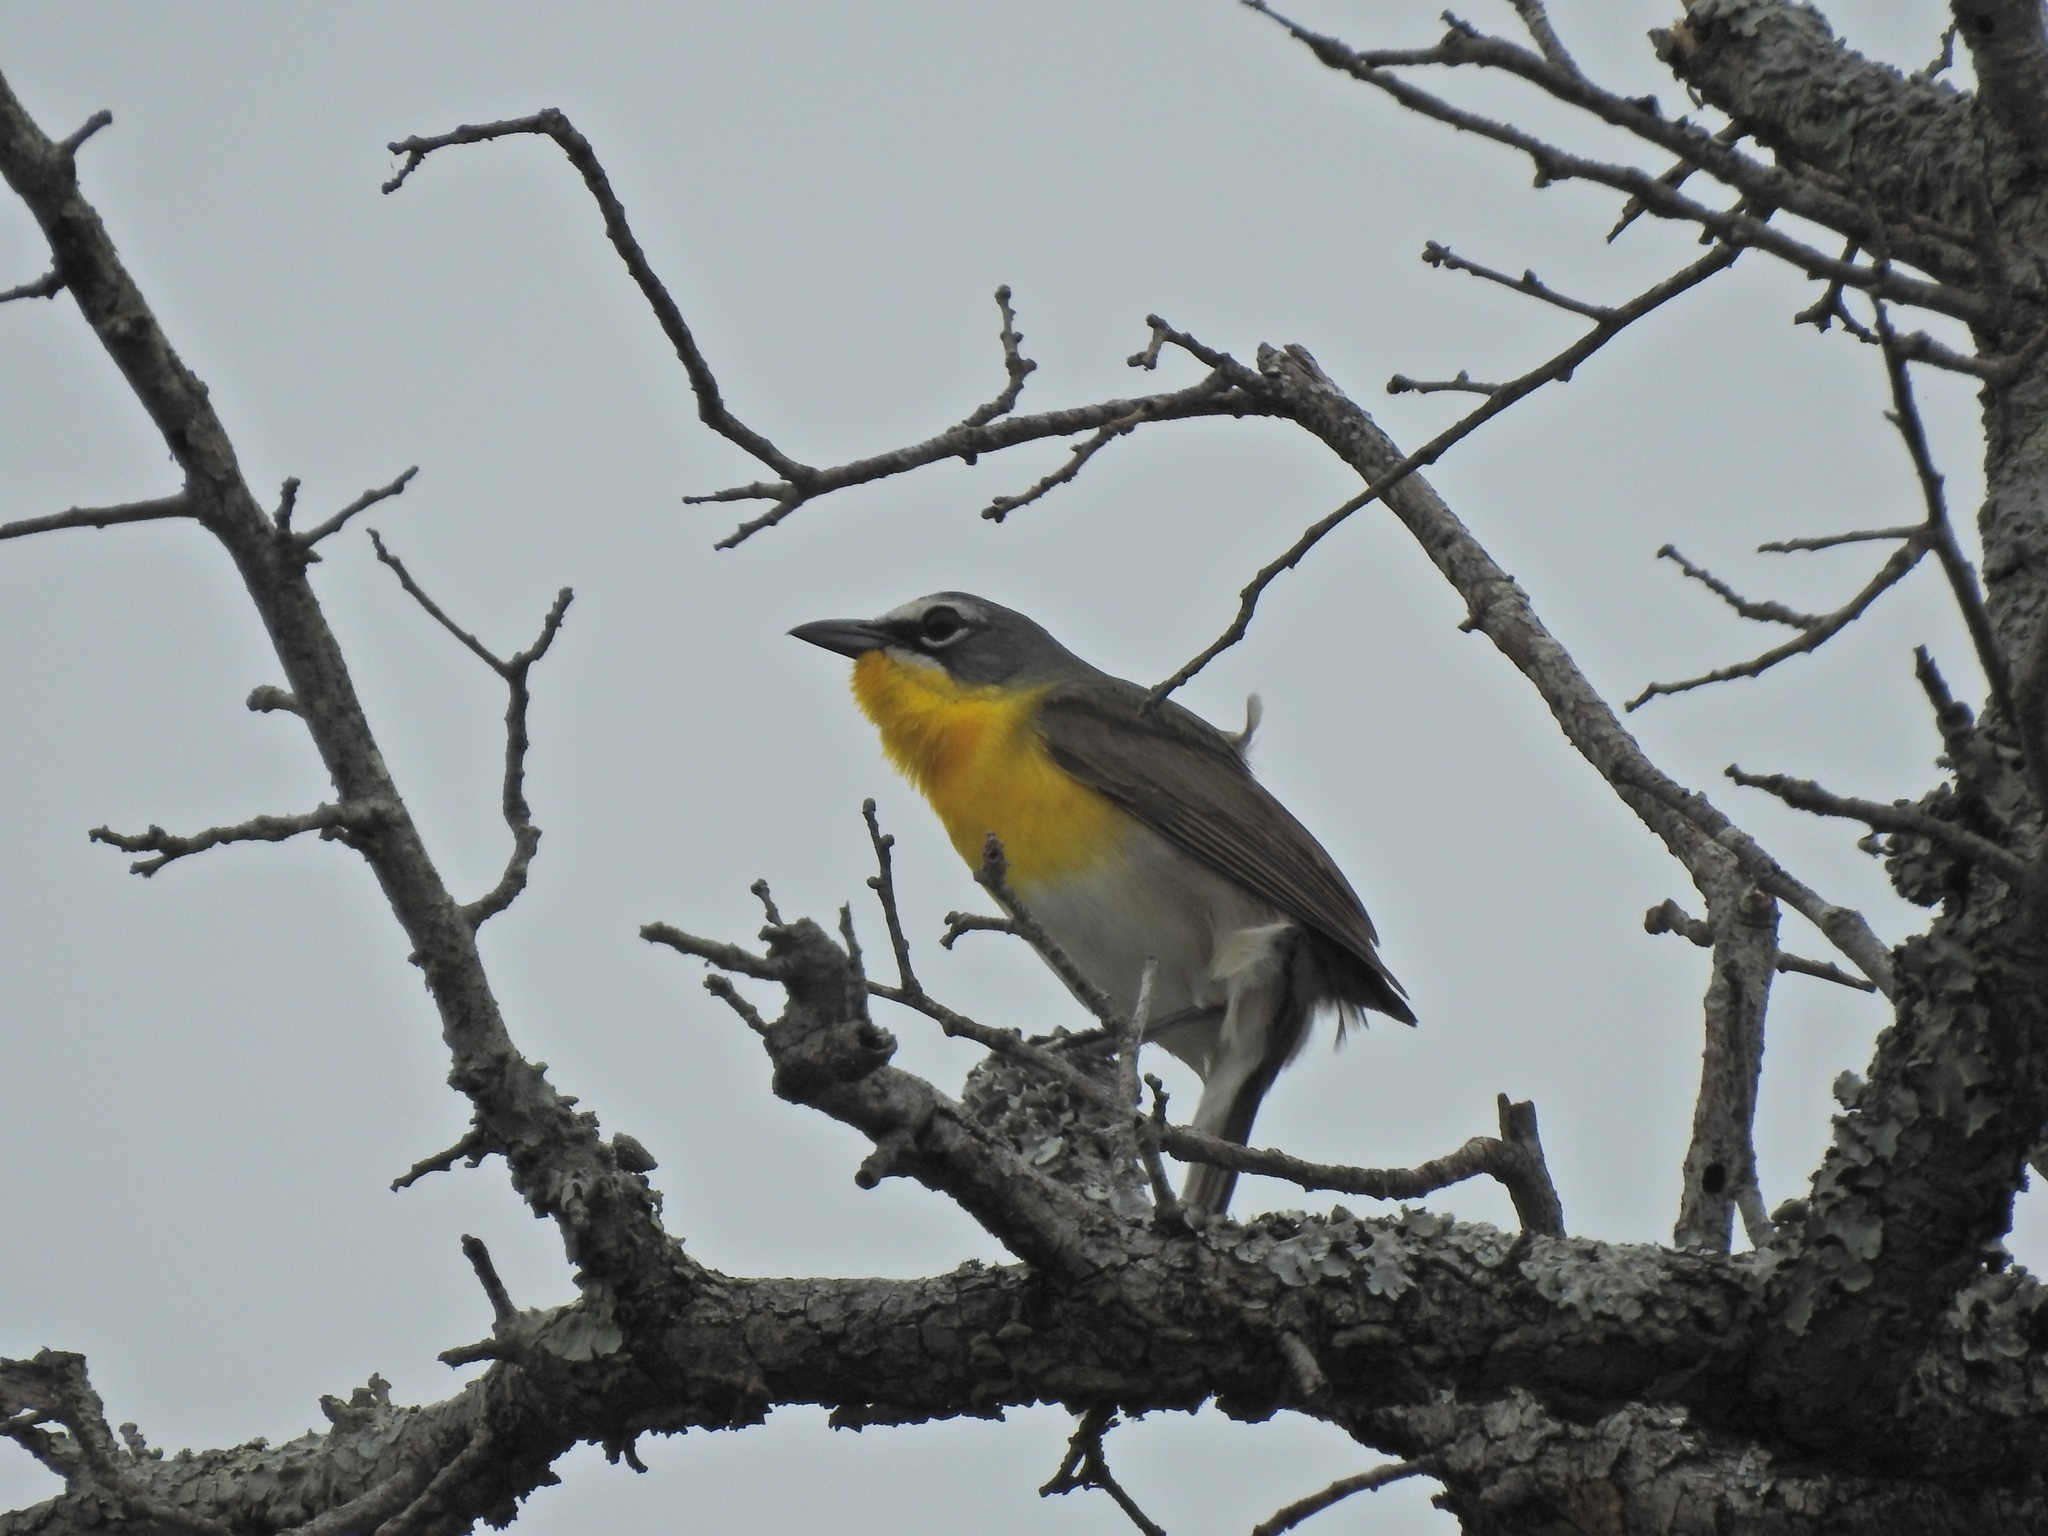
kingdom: Animalia
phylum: Chordata
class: Aves
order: Passeriformes
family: Parulidae
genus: Icteria
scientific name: Icteria virens
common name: Yellow-breasted chat
